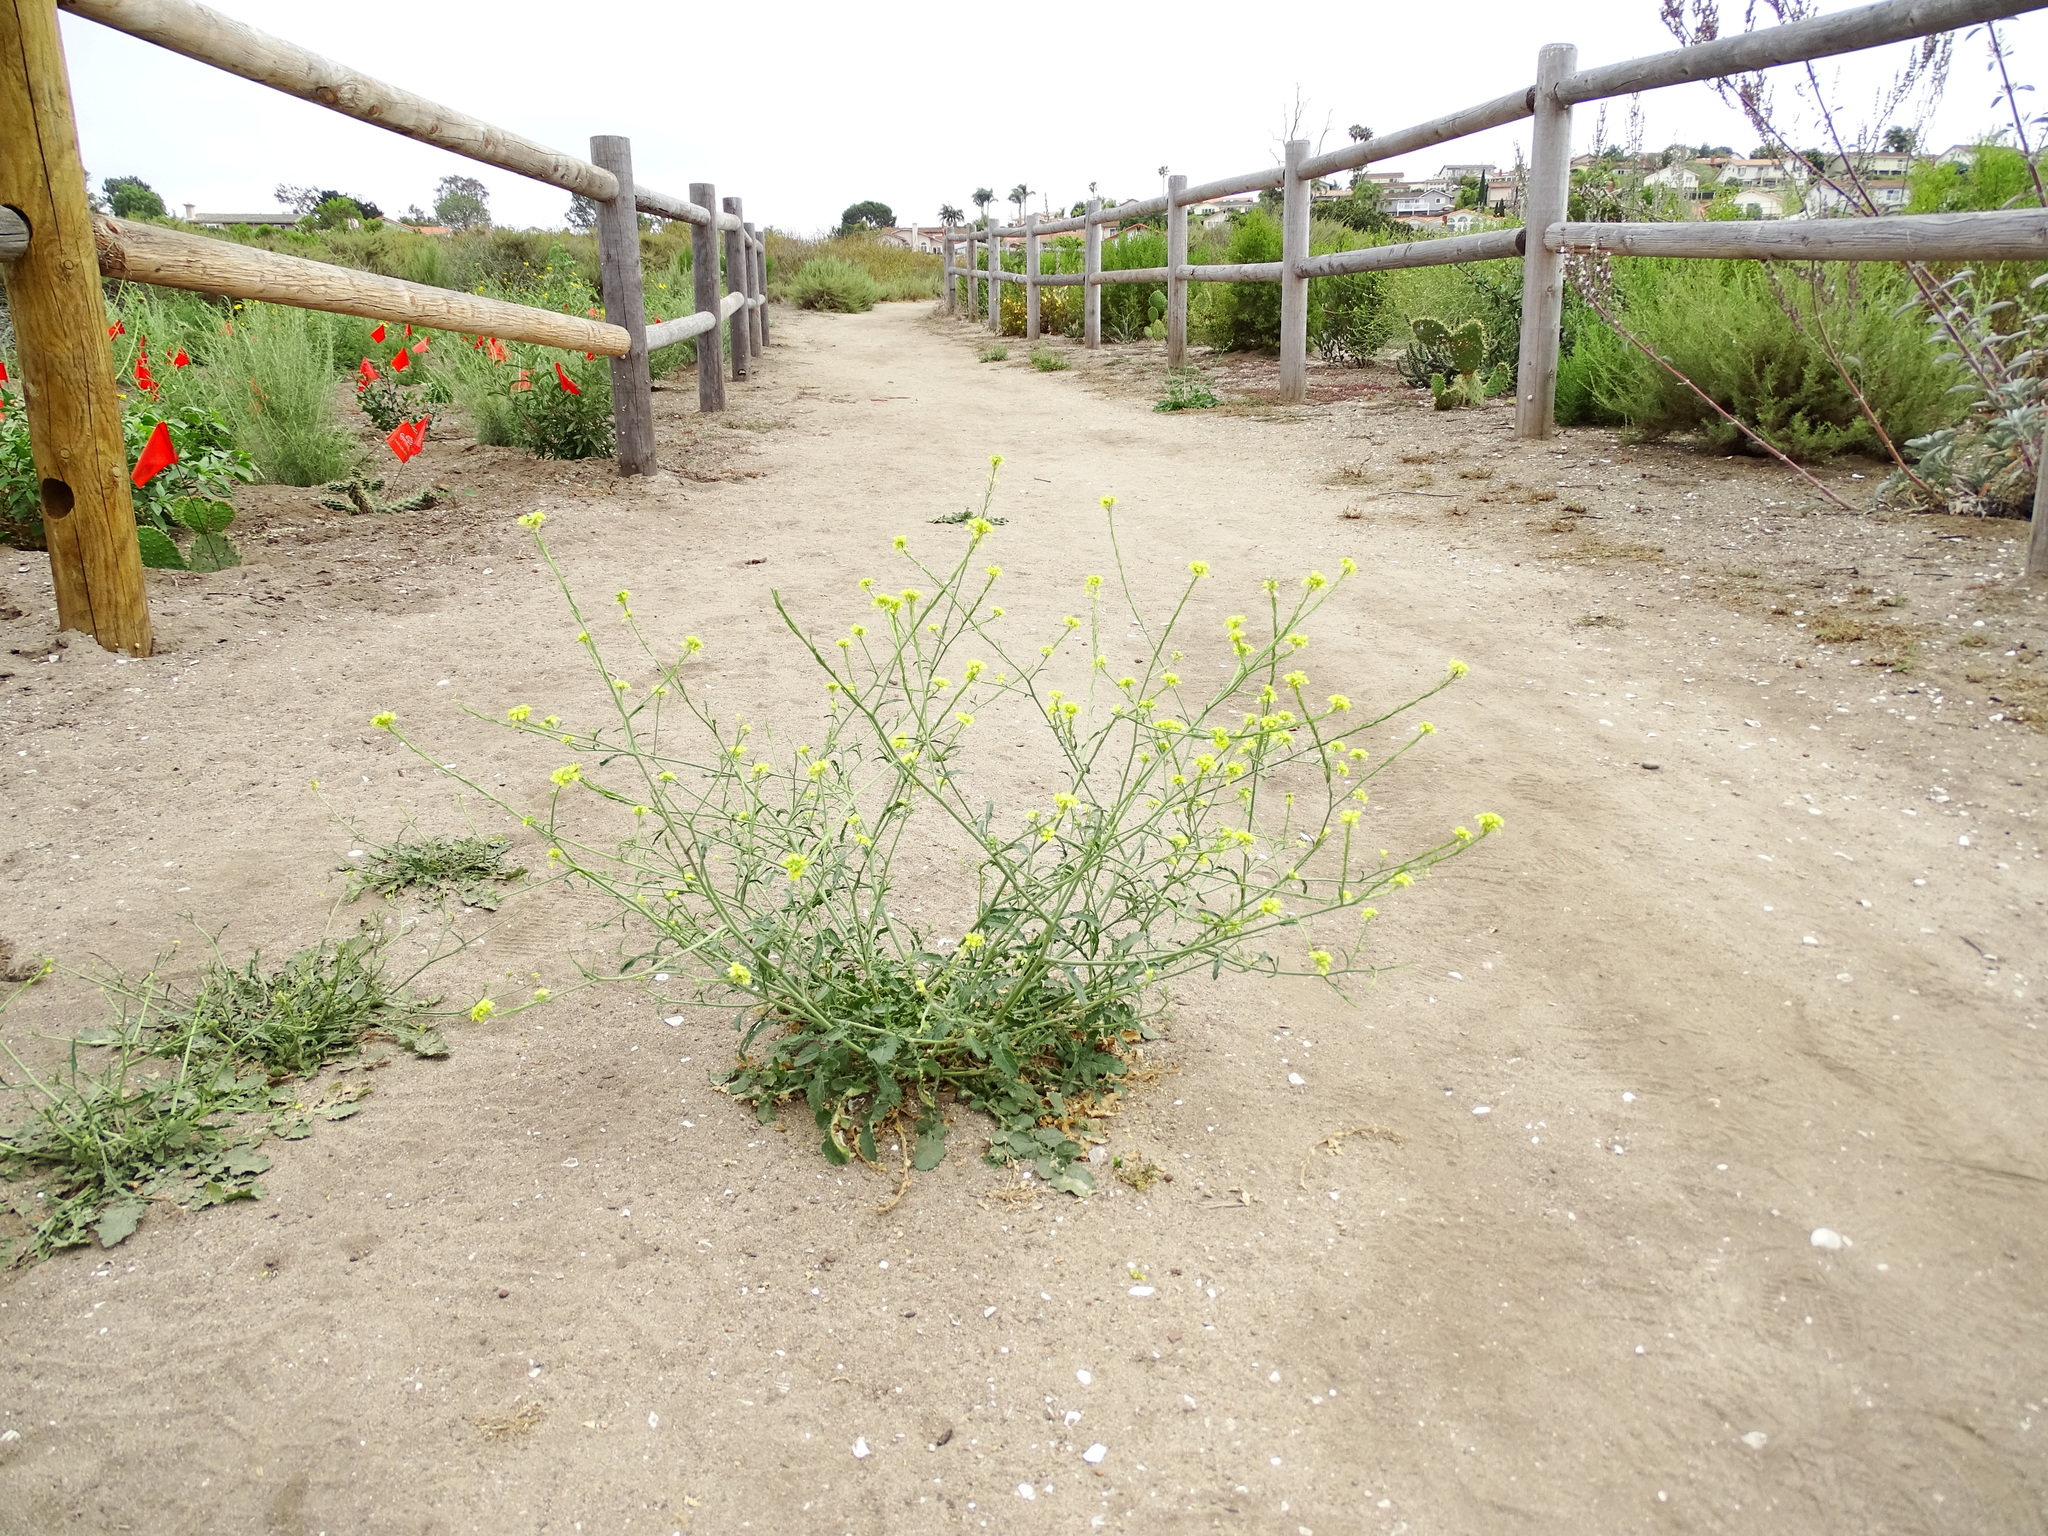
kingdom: Plantae
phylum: Tracheophyta
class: Magnoliopsida
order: Brassicales
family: Brassicaceae
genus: Hirschfeldia
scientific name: Hirschfeldia incana
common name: Hoary mustard
